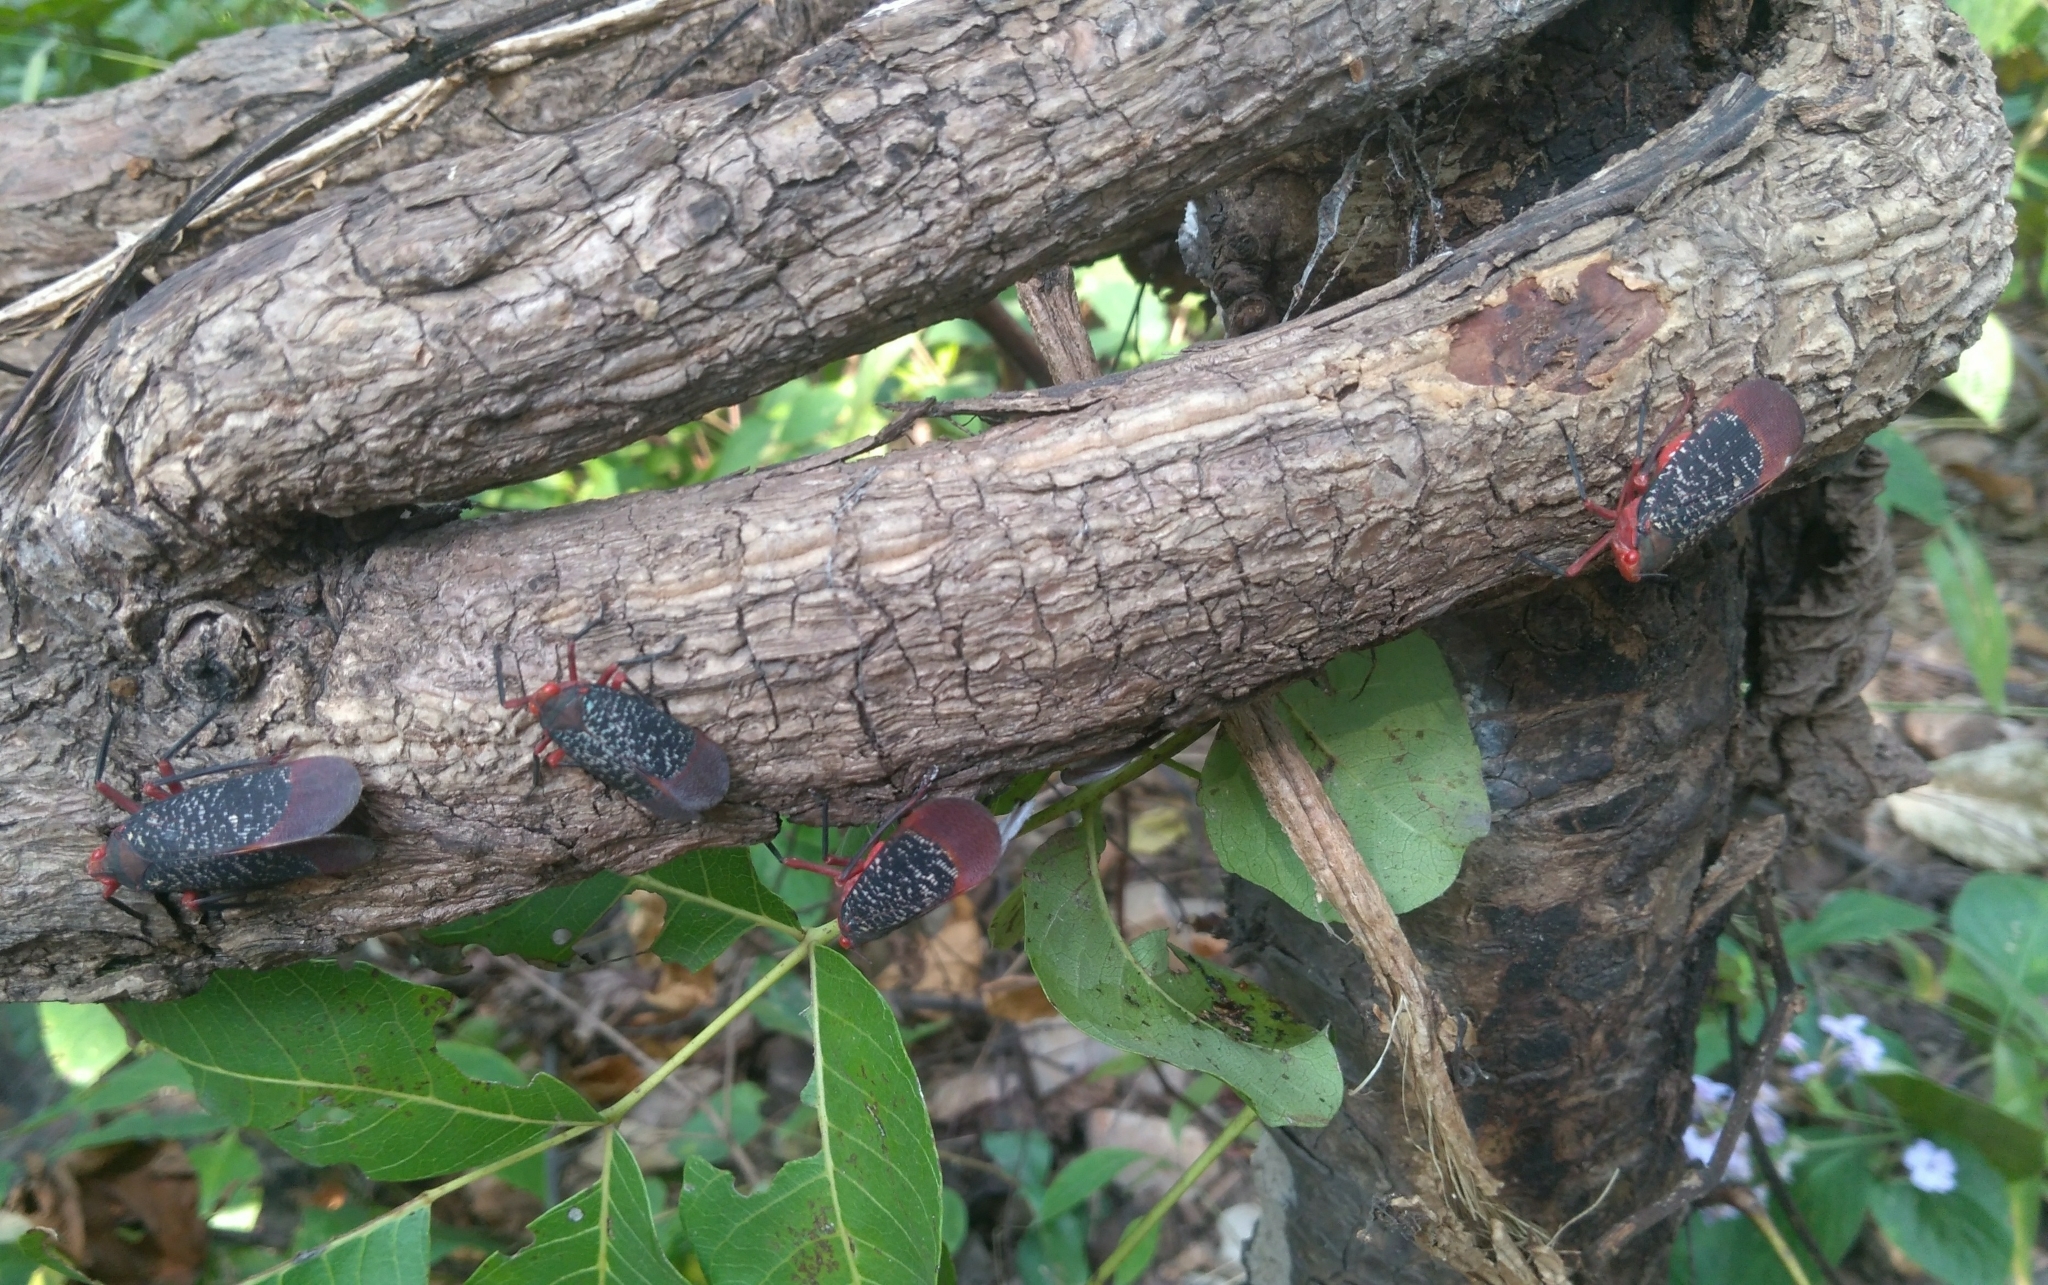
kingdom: Animalia
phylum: Arthropoda
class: Insecta
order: Hemiptera
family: Fulgoridae
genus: Kalidasa
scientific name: Kalidasa lanata
